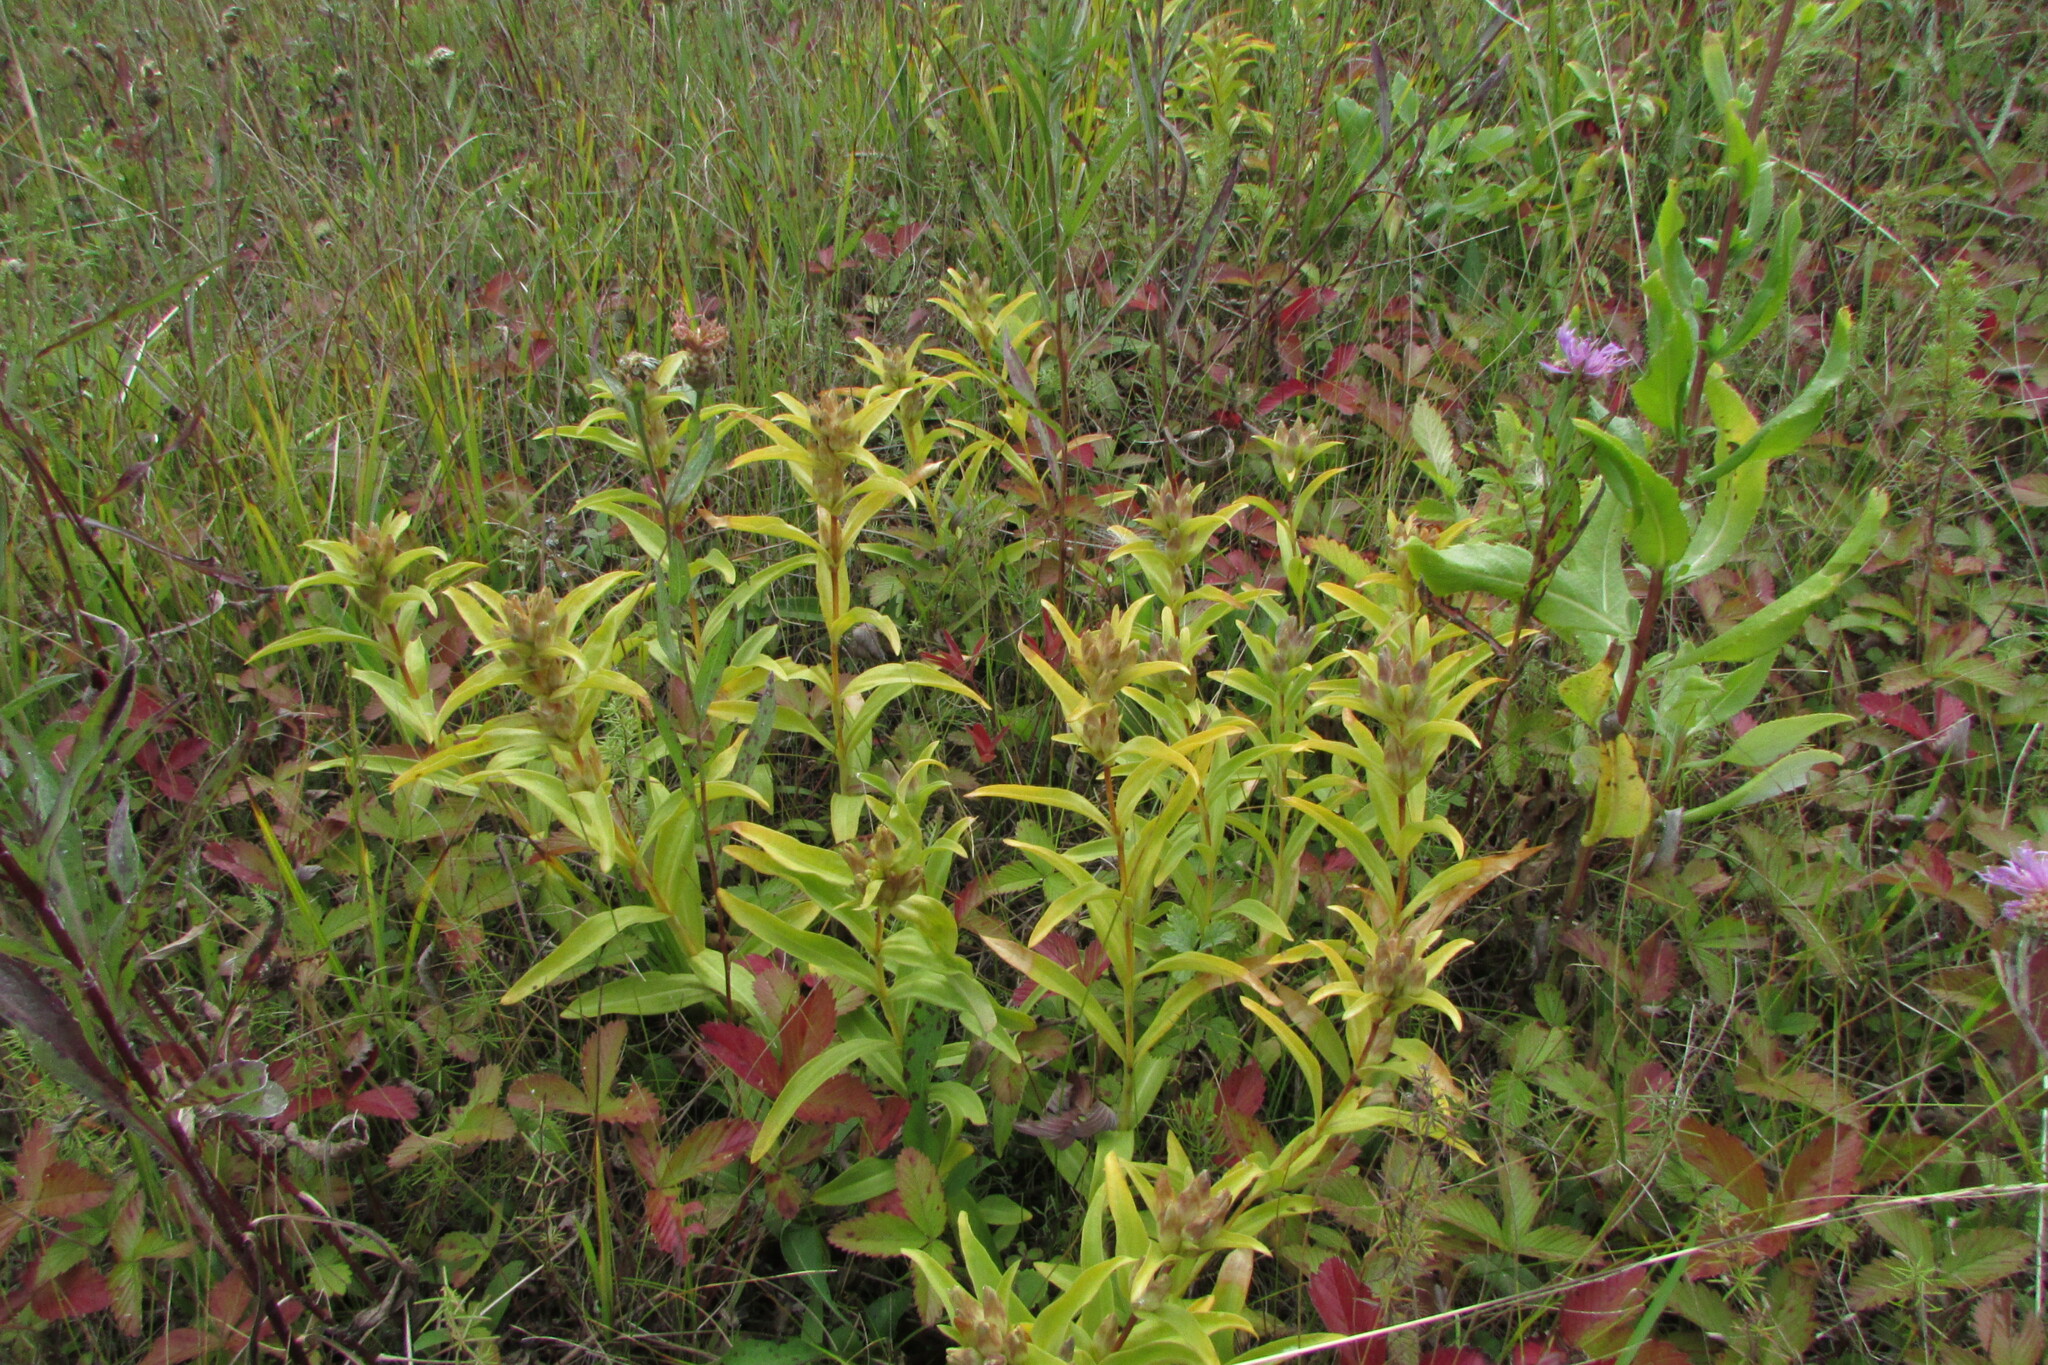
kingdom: Plantae
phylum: Tracheophyta
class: Magnoliopsida
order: Gentianales
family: Gentianaceae
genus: Gentiana
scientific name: Gentiana cruciata
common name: Cross gentian
